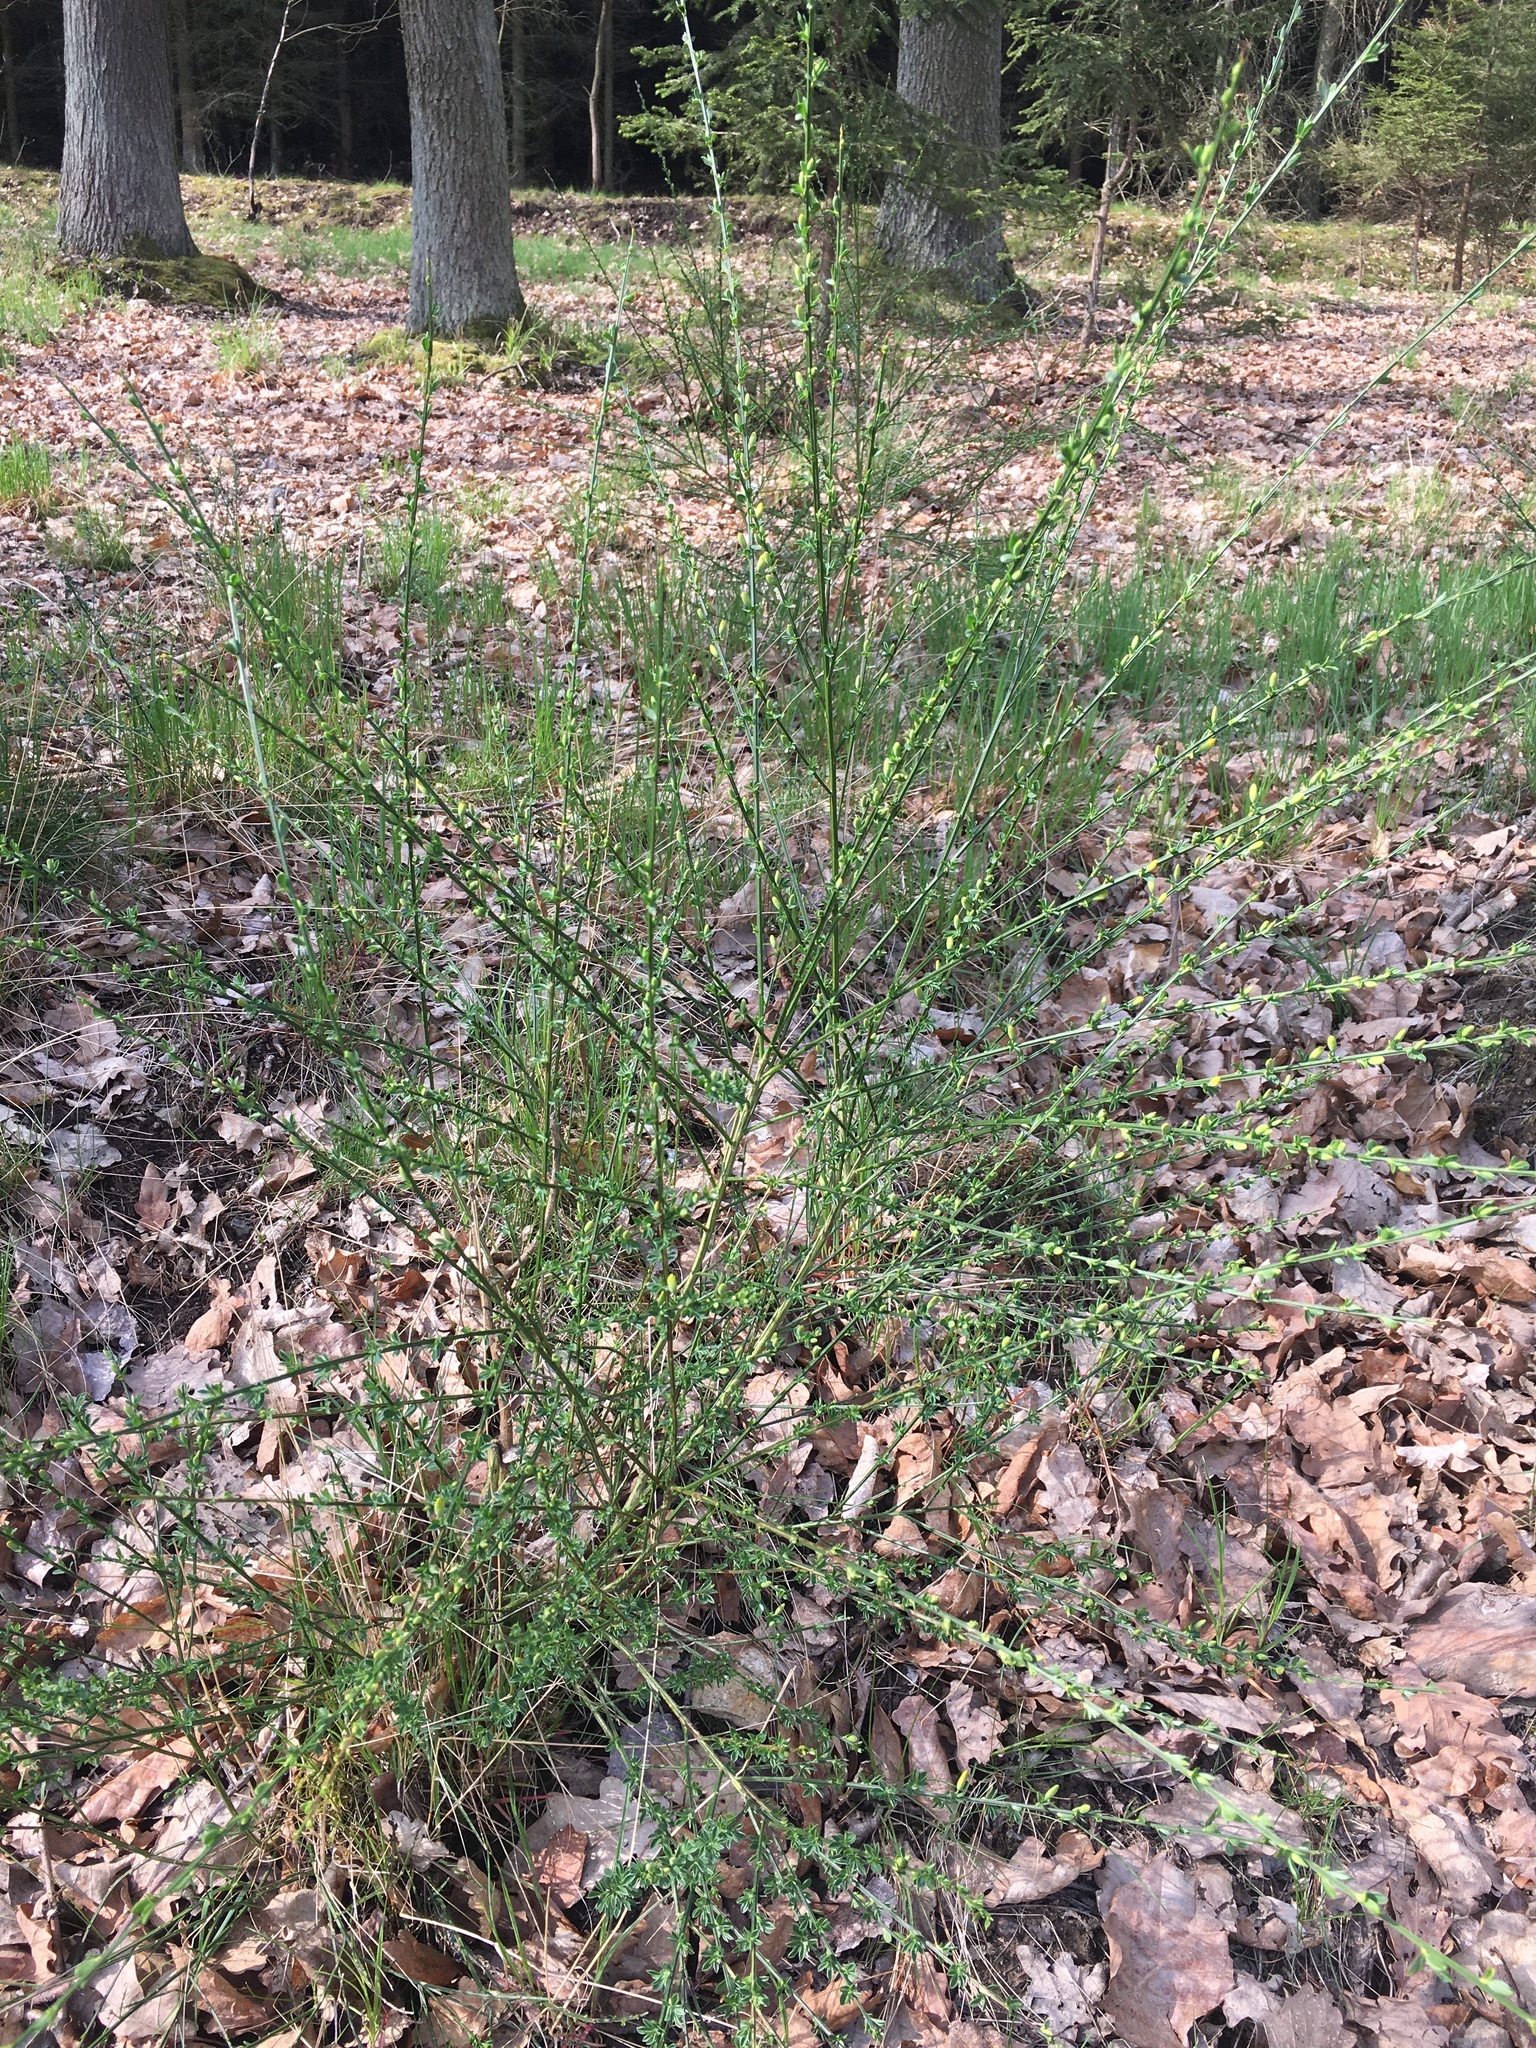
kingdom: Plantae
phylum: Tracheophyta
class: Magnoliopsida
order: Fabales
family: Fabaceae
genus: Cytisus
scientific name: Cytisus scoparius
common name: Scotch broom
